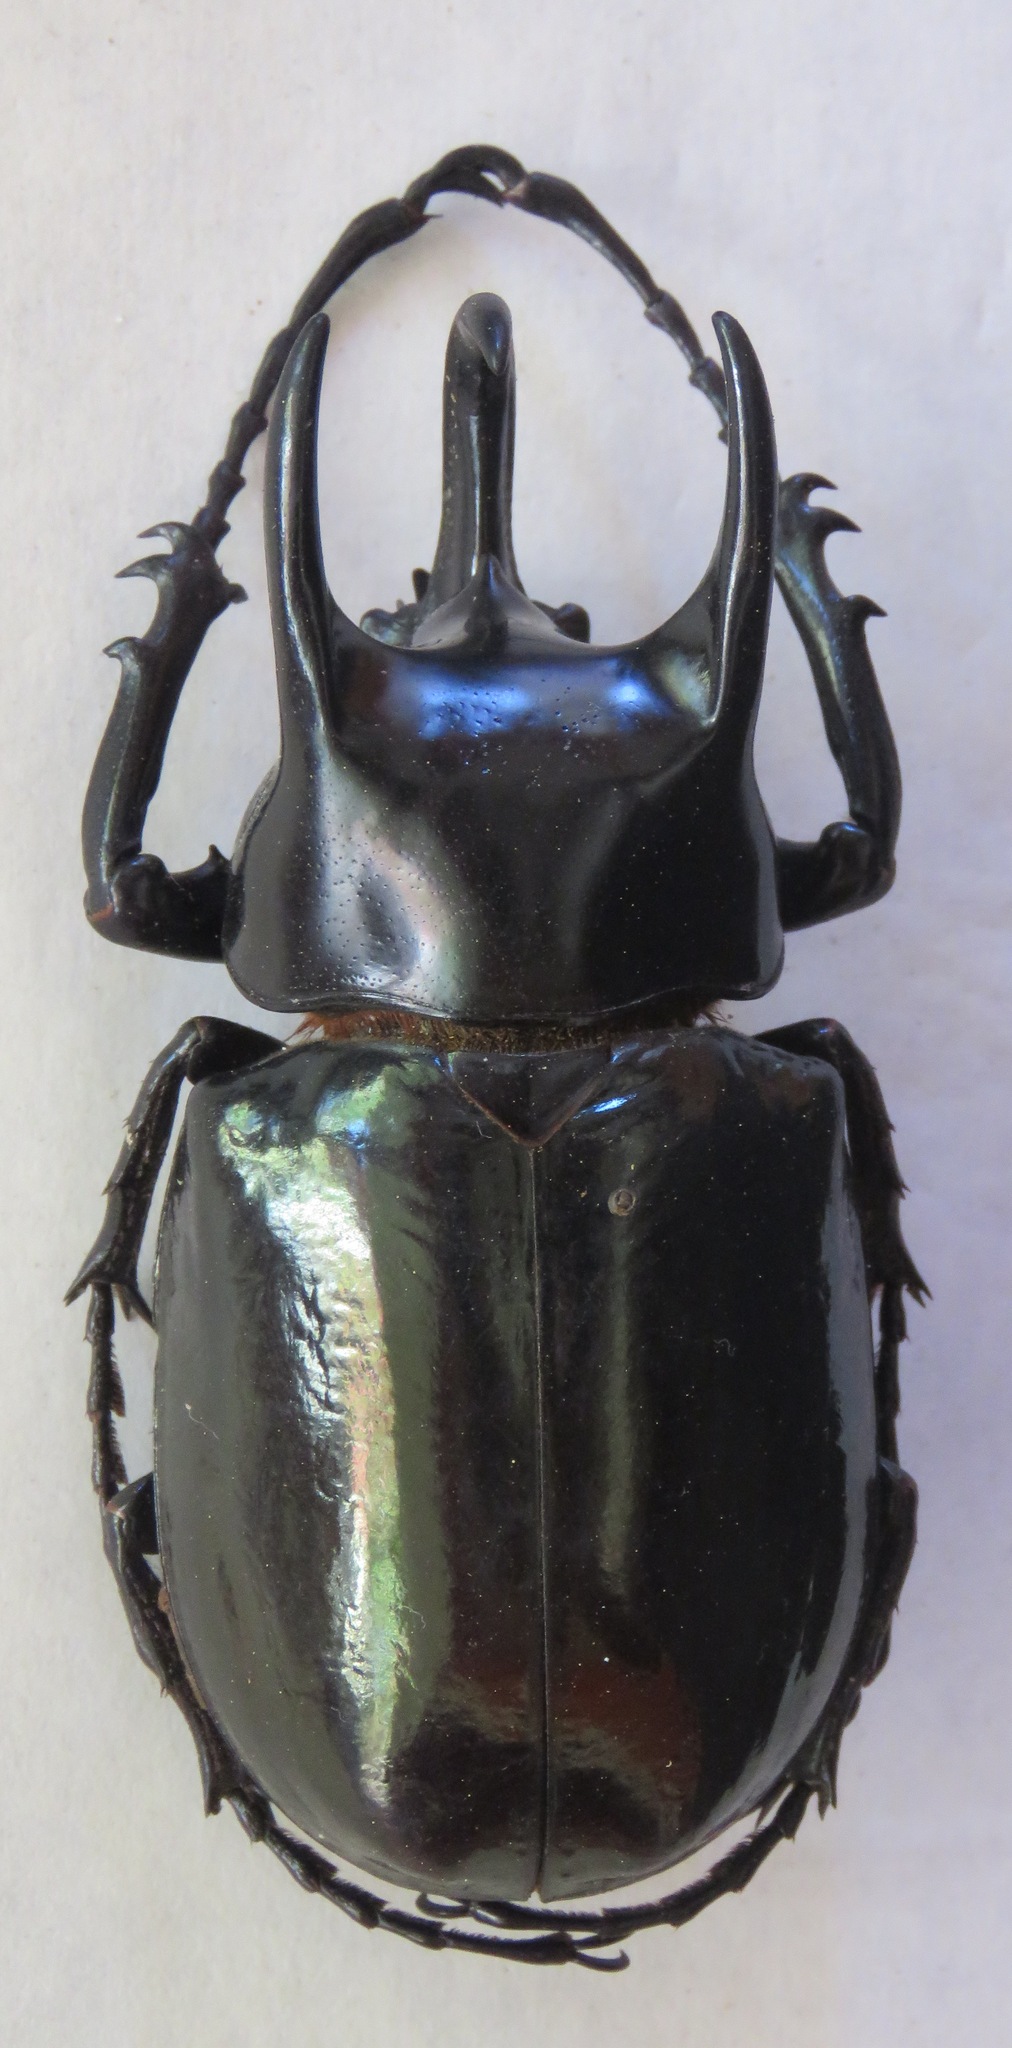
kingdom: Animalia
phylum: Arthropoda
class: Insecta
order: Coleoptera
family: Scarabaeidae
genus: Chalcosoma
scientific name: Chalcosoma chiron
